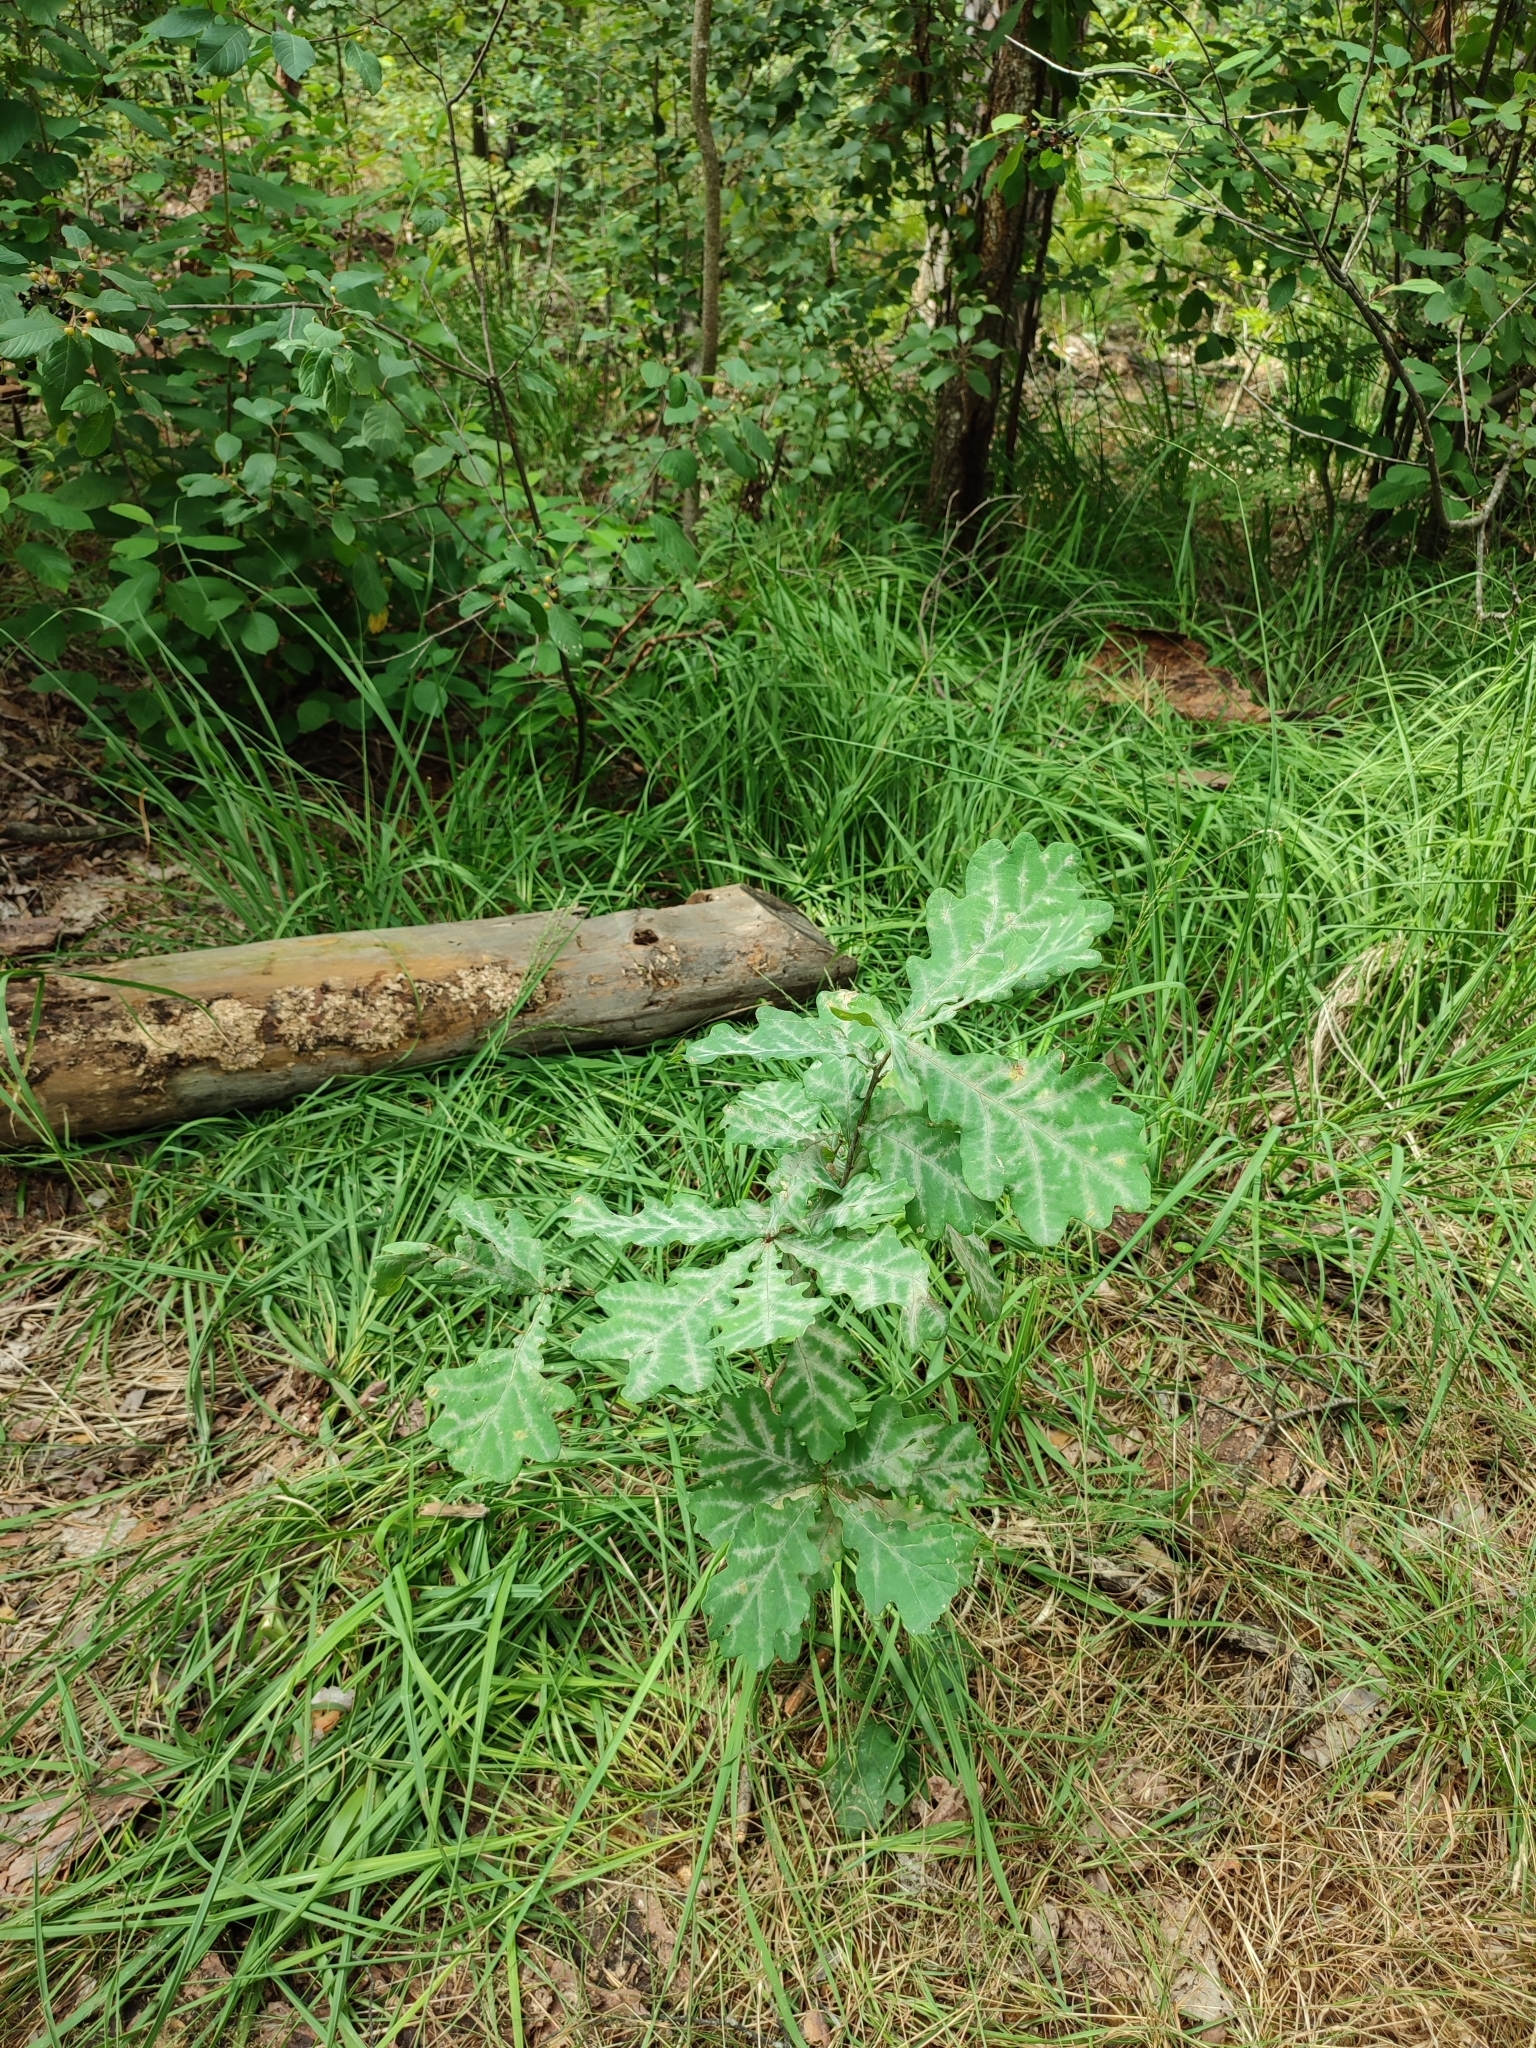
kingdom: Plantae
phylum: Tracheophyta
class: Magnoliopsida
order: Fagales
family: Fagaceae
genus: Quercus
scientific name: Quercus robur
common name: Pedunculate oak
